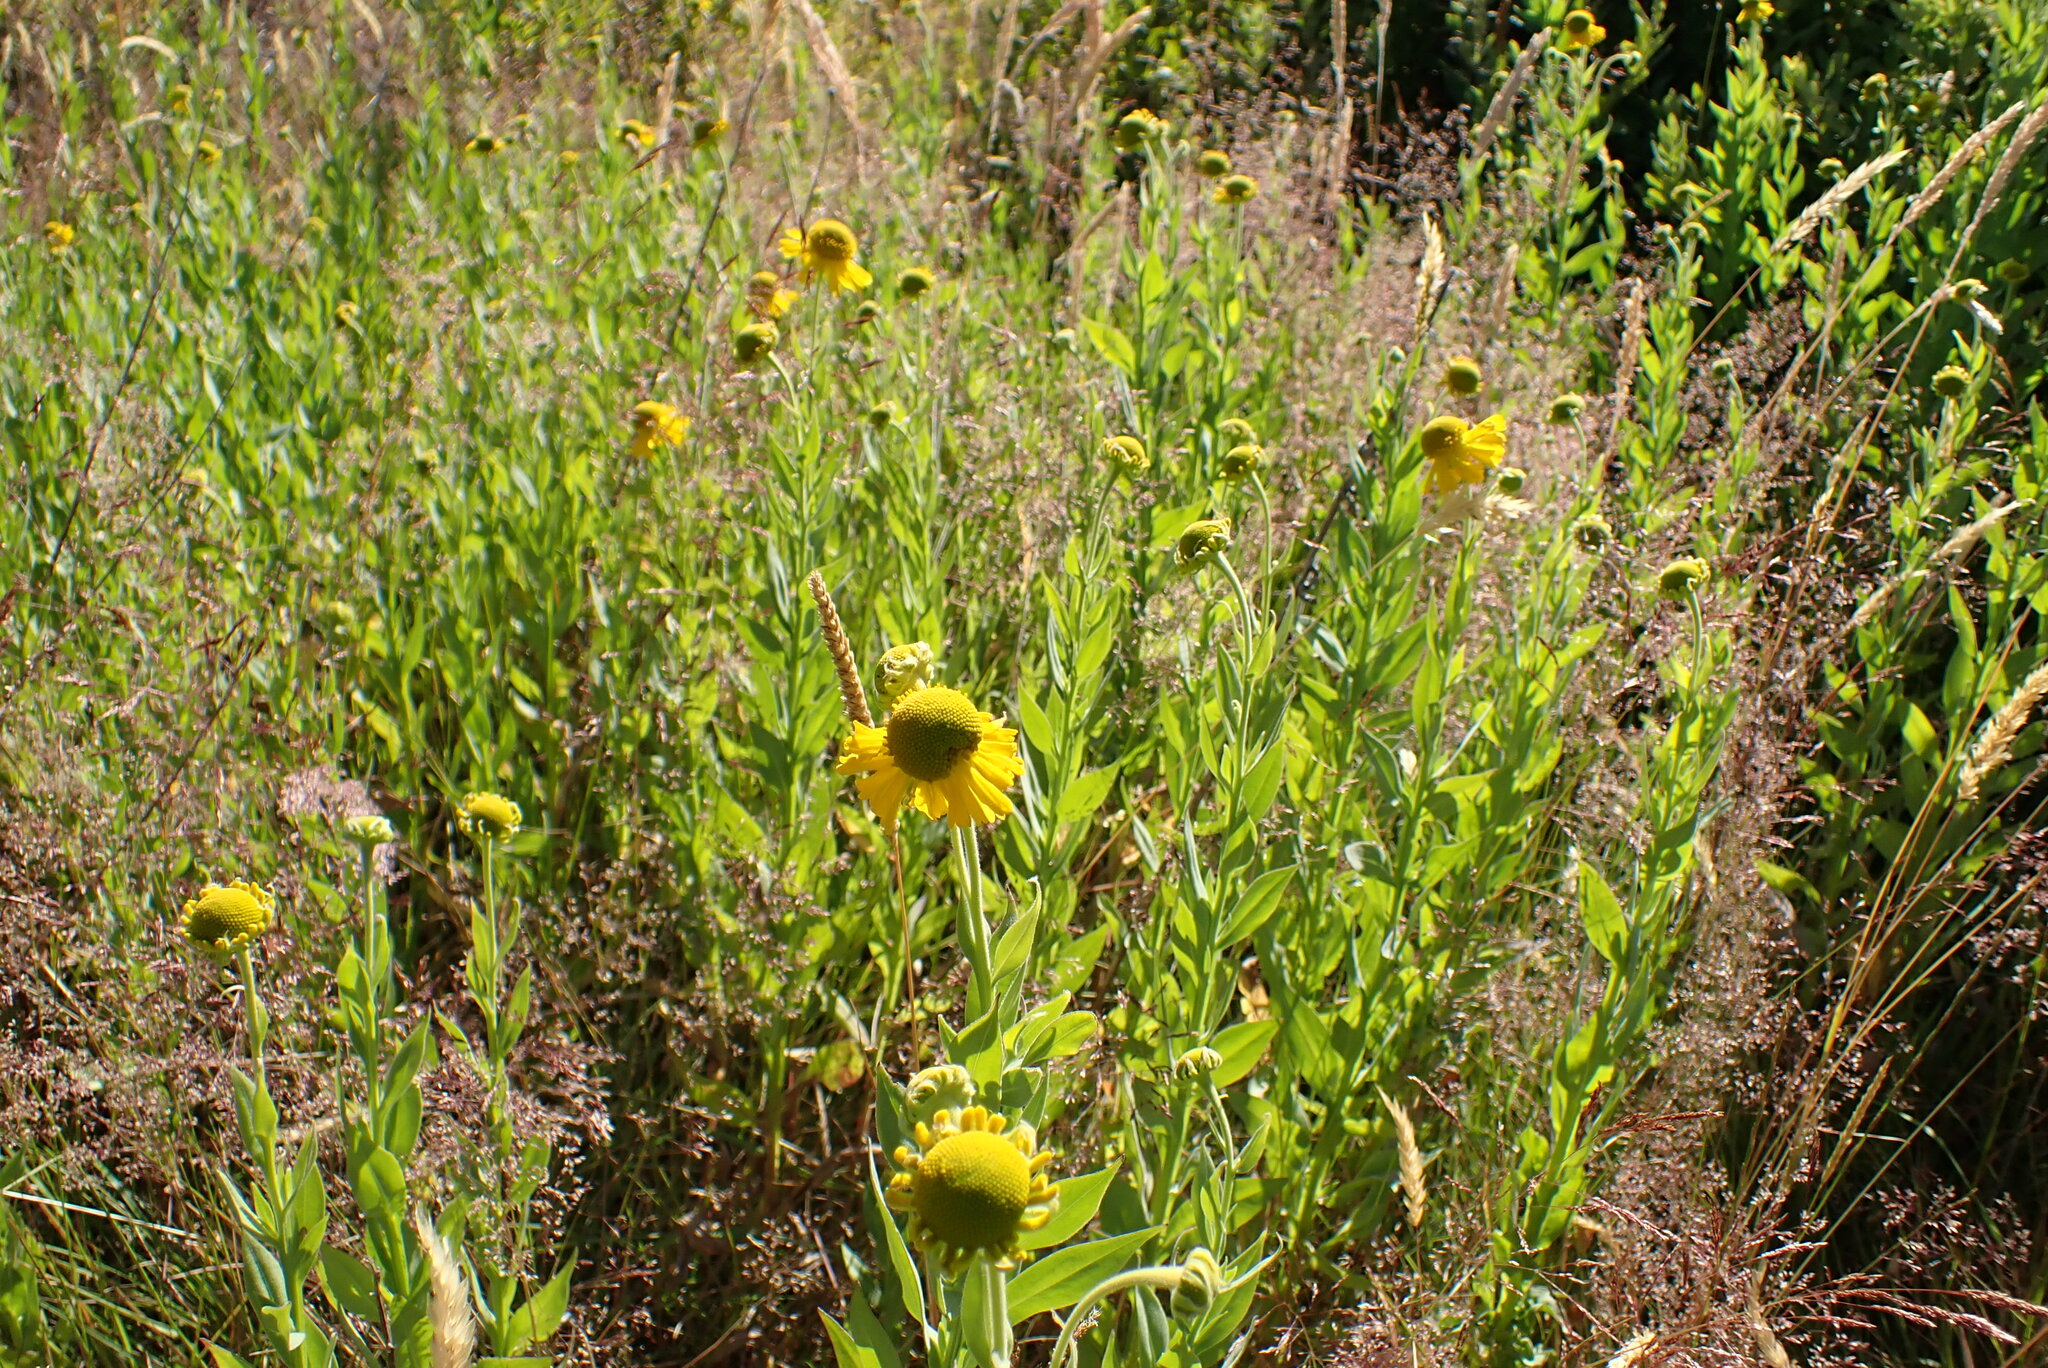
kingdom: Plantae
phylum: Tracheophyta
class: Magnoliopsida
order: Asterales
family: Asteraceae
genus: Helenium
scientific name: Helenium autumnale
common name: Sneezeweed
